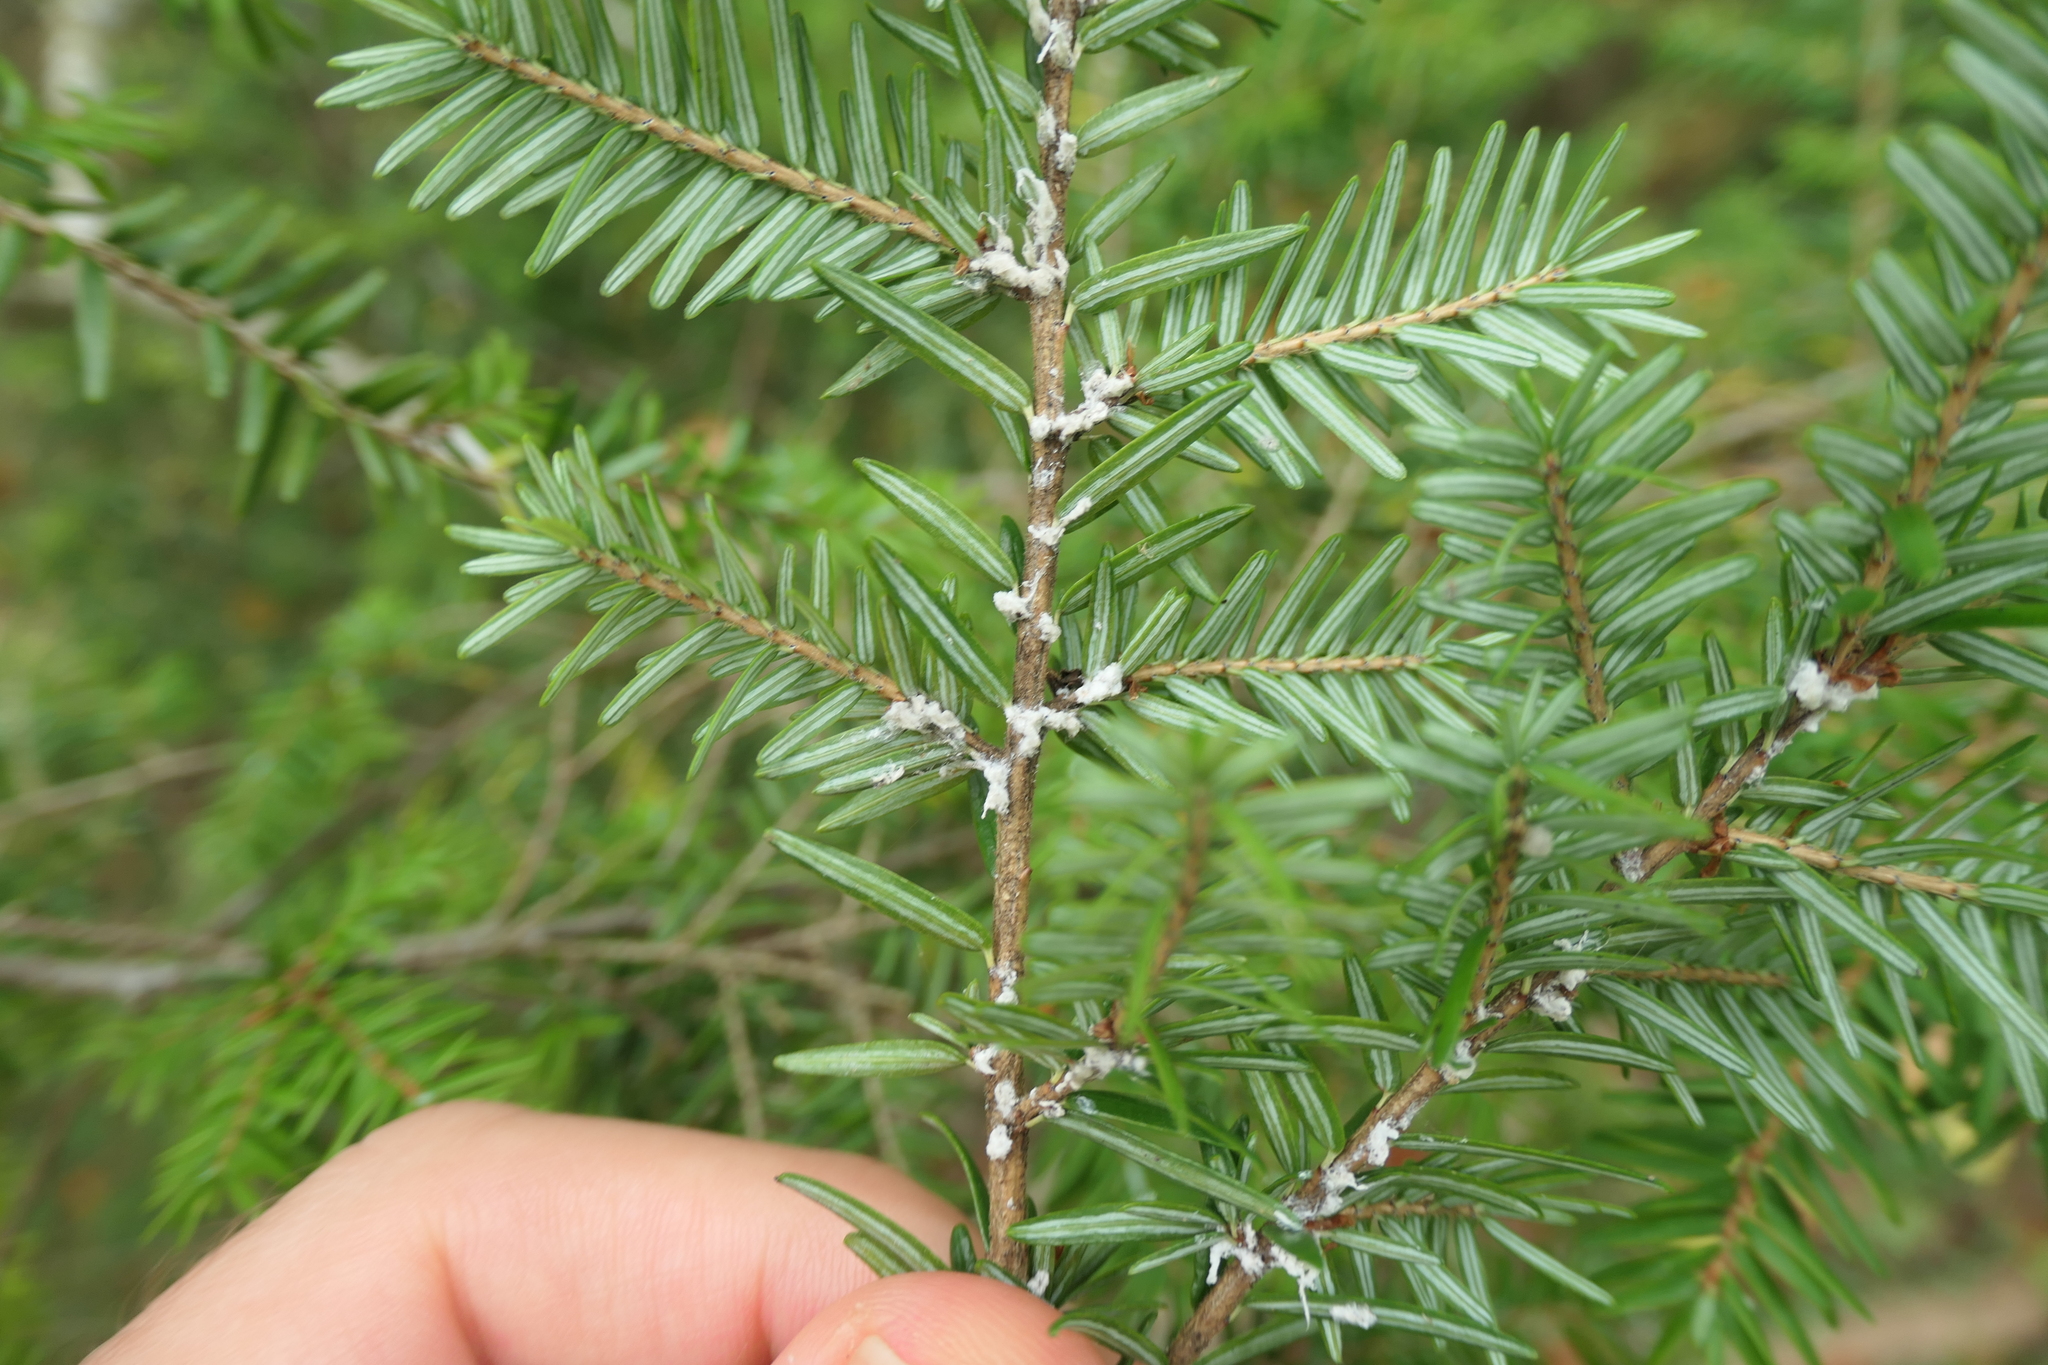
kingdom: Animalia
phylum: Arthropoda
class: Insecta
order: Hemiptera
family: Adelgidae
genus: Adelges
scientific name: Adelges tsugae
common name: Hemlock woolly adelgid
